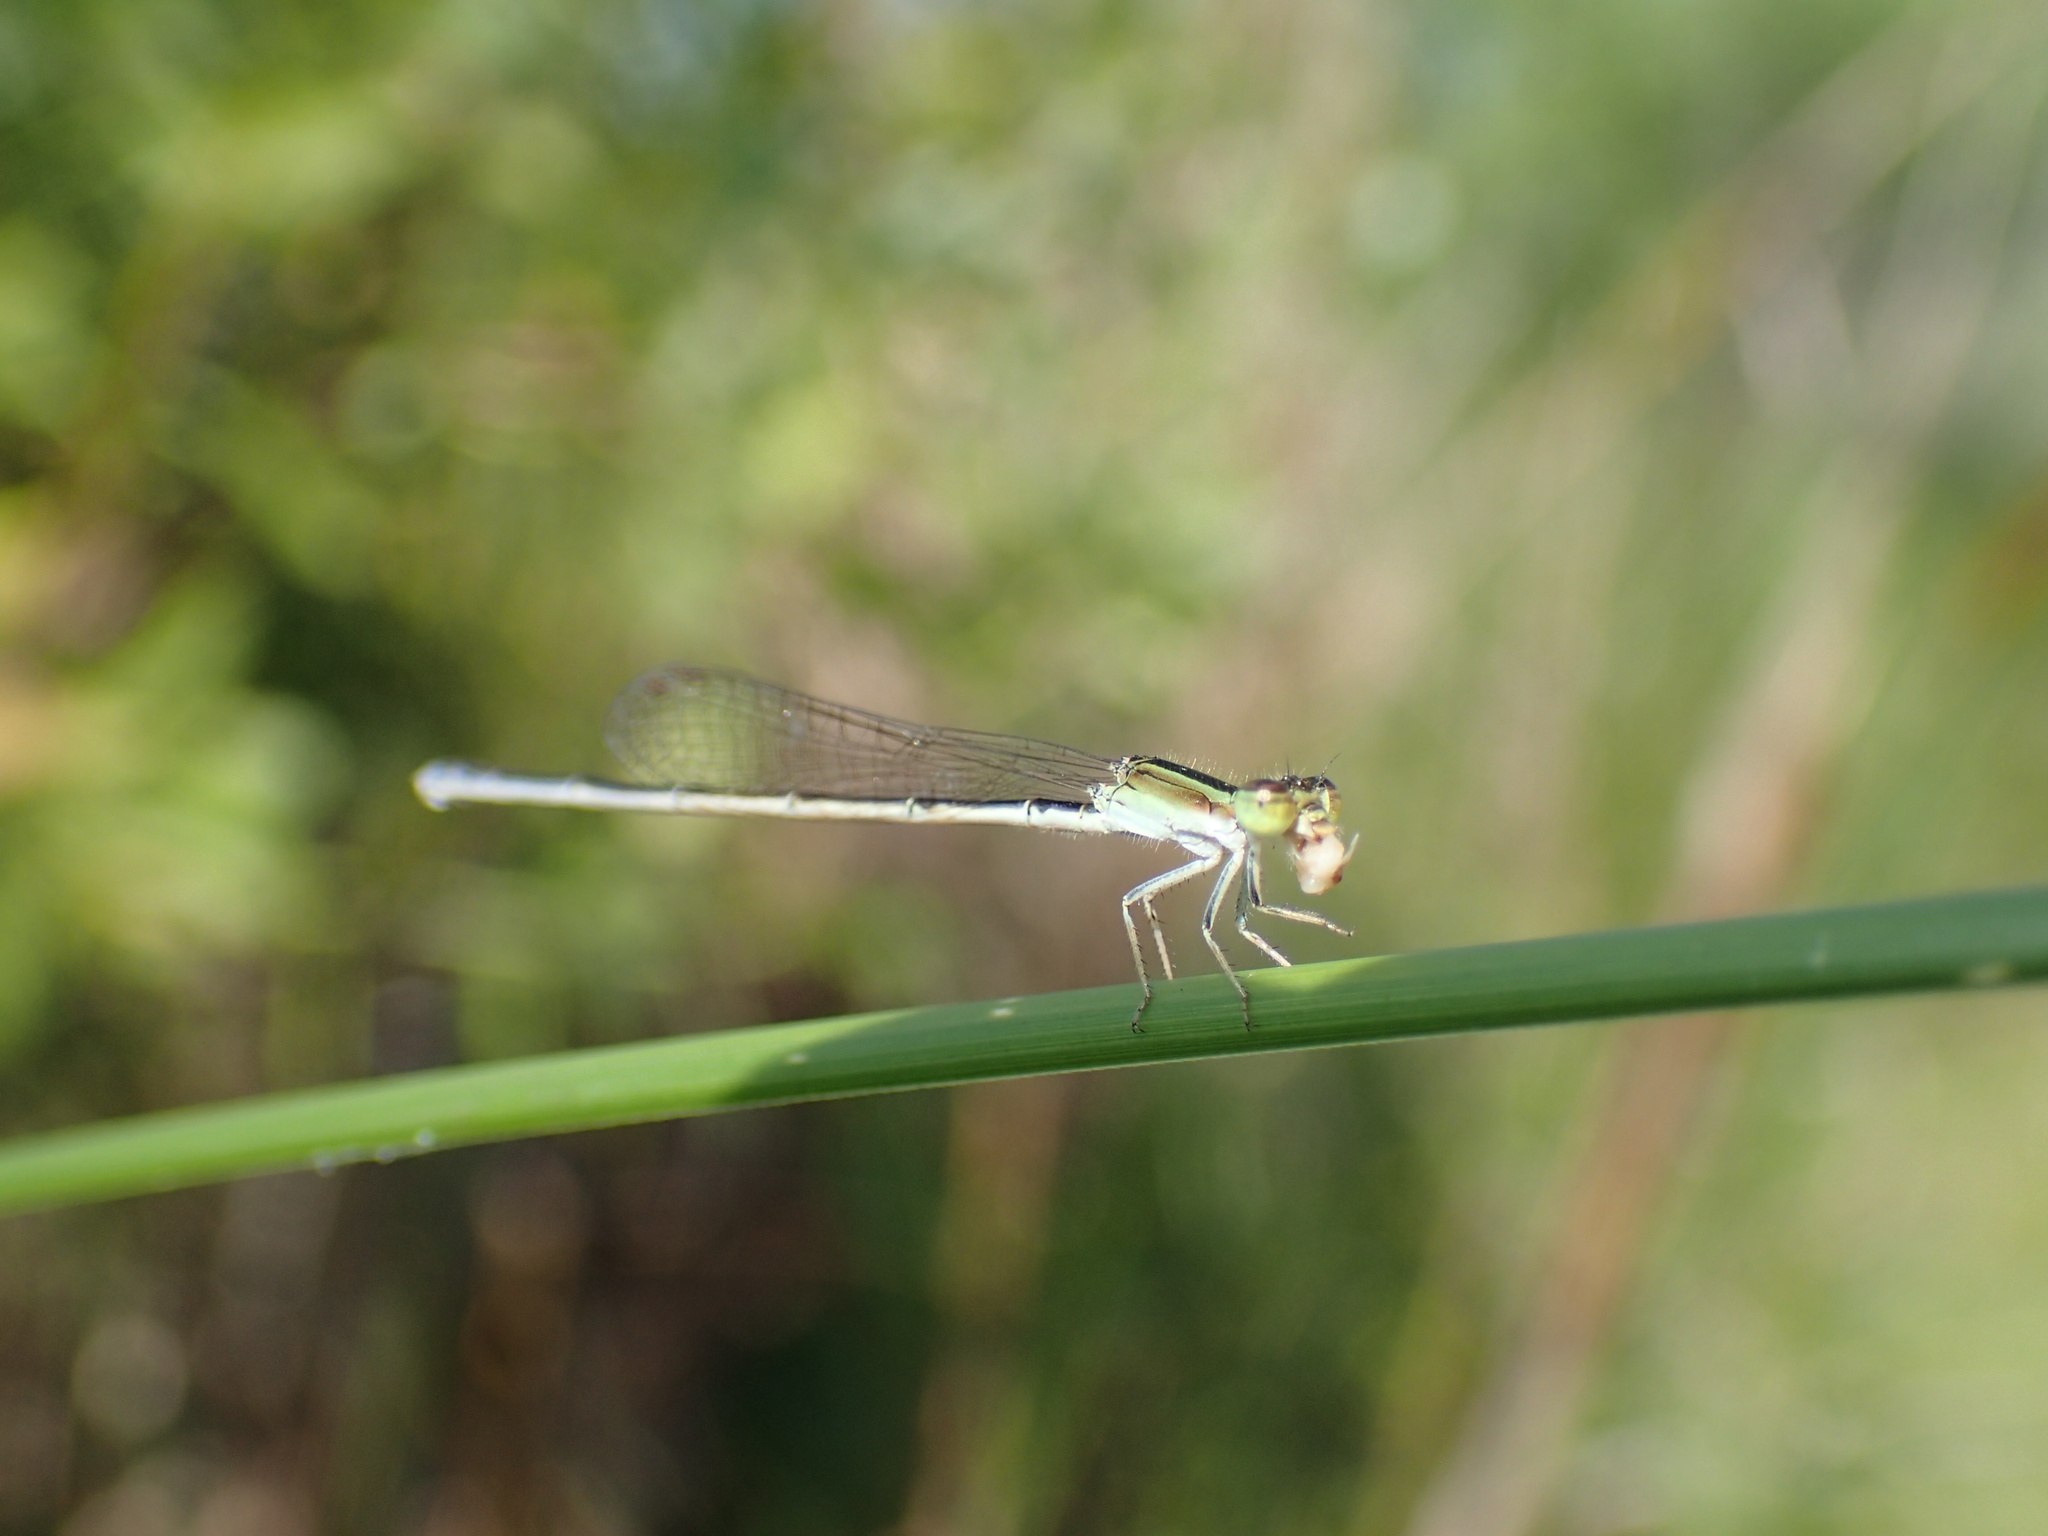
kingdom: Animalia
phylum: Arthropoda
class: Insecta
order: Odonata
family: Coenagrionidae
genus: Ischnura
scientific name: Ischnura ramburii
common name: Rambur's forktail
